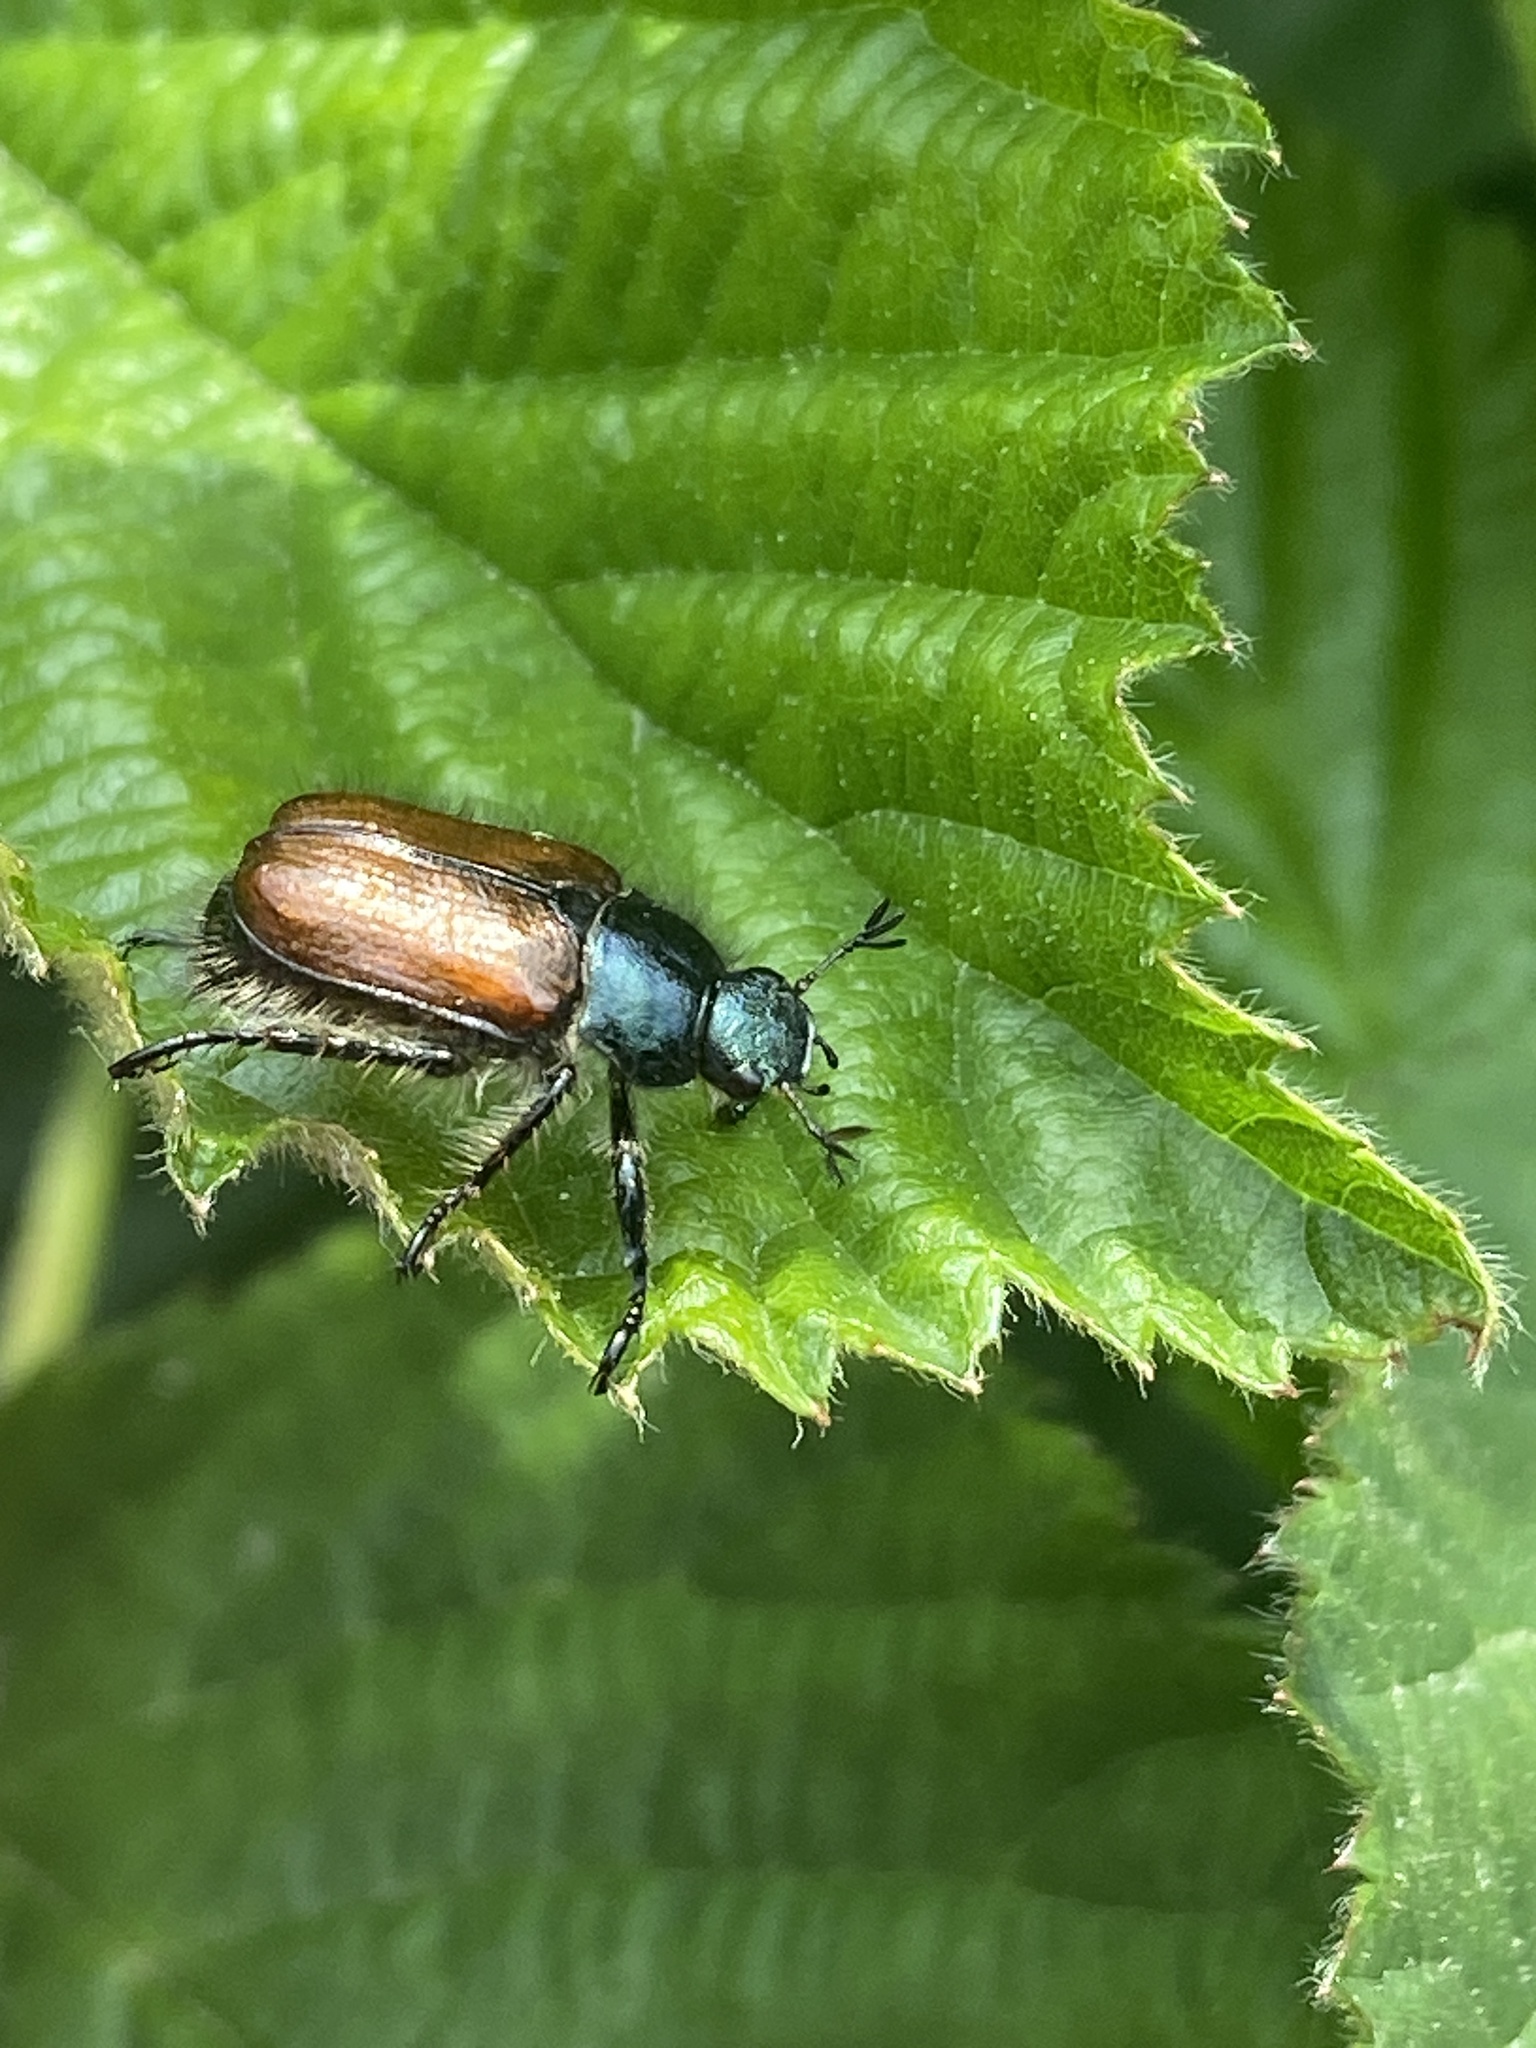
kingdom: Animalia
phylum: Arthropoda
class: Insecta
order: Coleoptera
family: Scarabaeidae
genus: Phyllopertha
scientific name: Phyllopertha horticola
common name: Garden chafer
